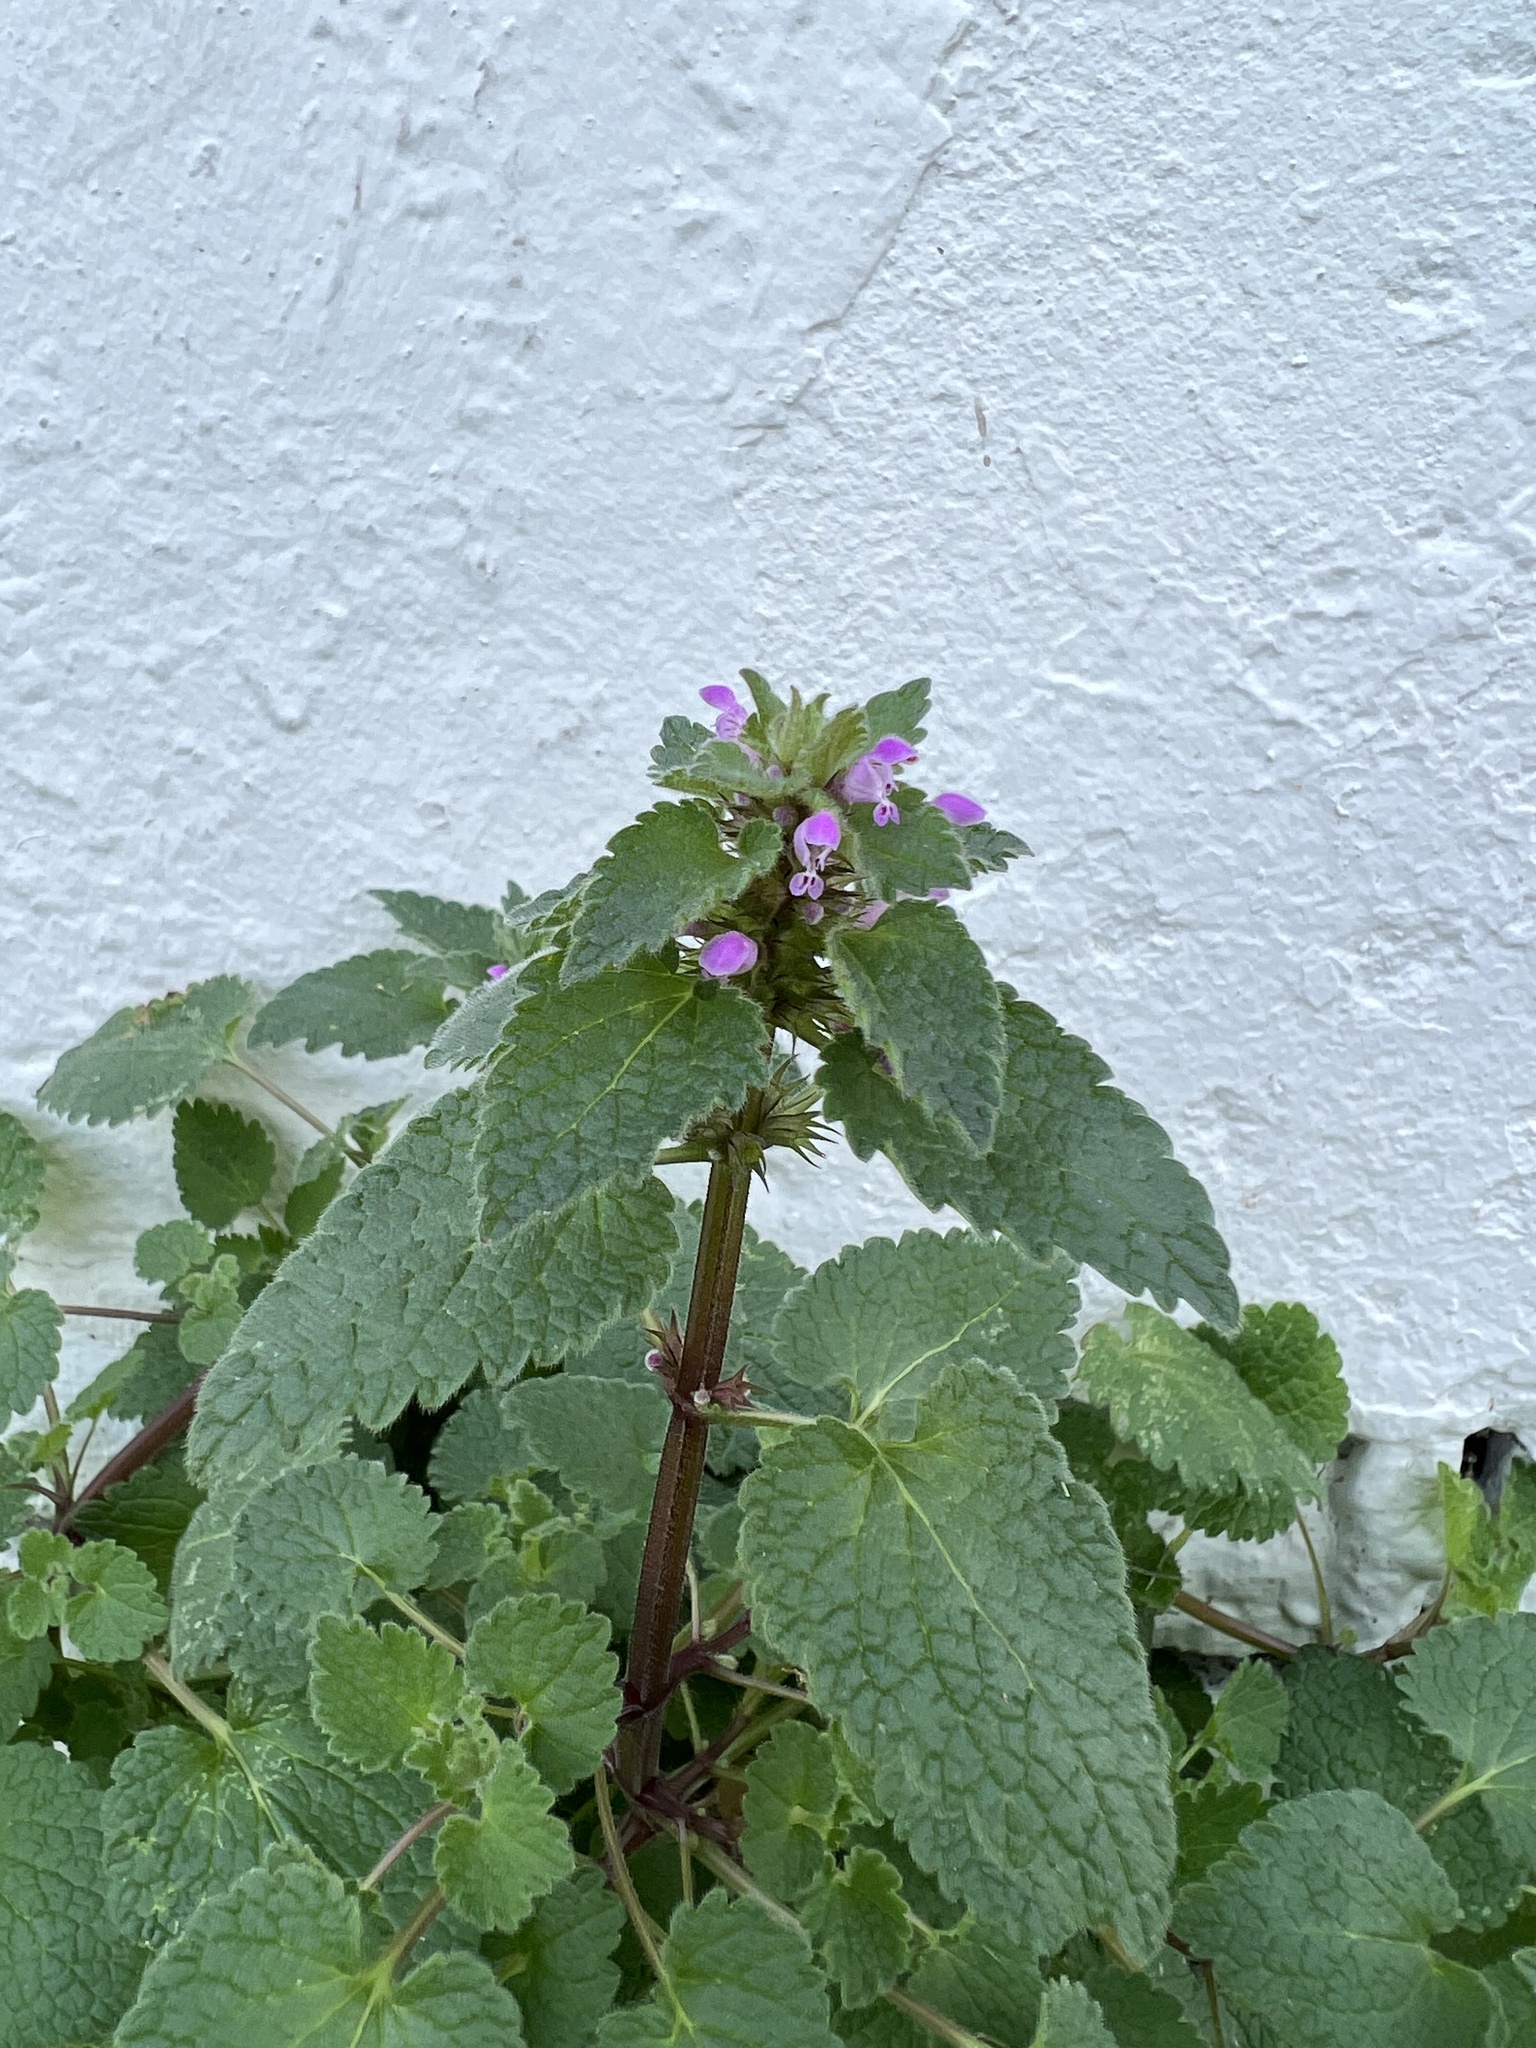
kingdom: Plantae
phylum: Tracheophyta
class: Magnoliopsida
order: Lamiales
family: Lamiaceae
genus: Lamium
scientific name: Lamium purpureum
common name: Red dead-nettle
